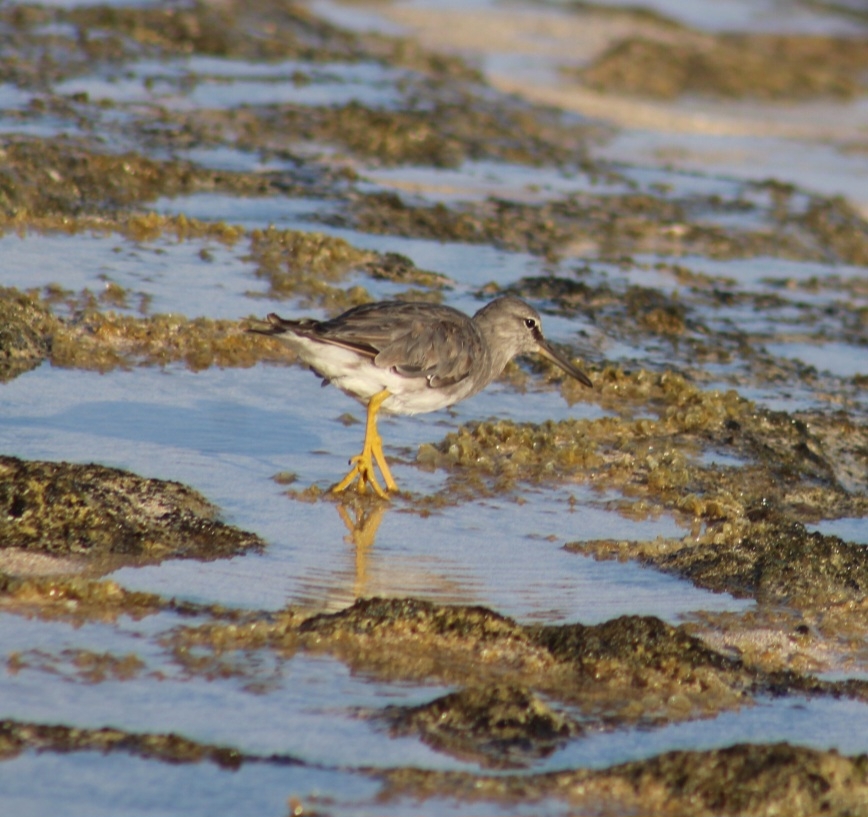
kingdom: Animalia
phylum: Chordata
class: Aves
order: Charadriiformes
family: Scolopacidae
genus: Tringa
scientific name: Tringa incana
